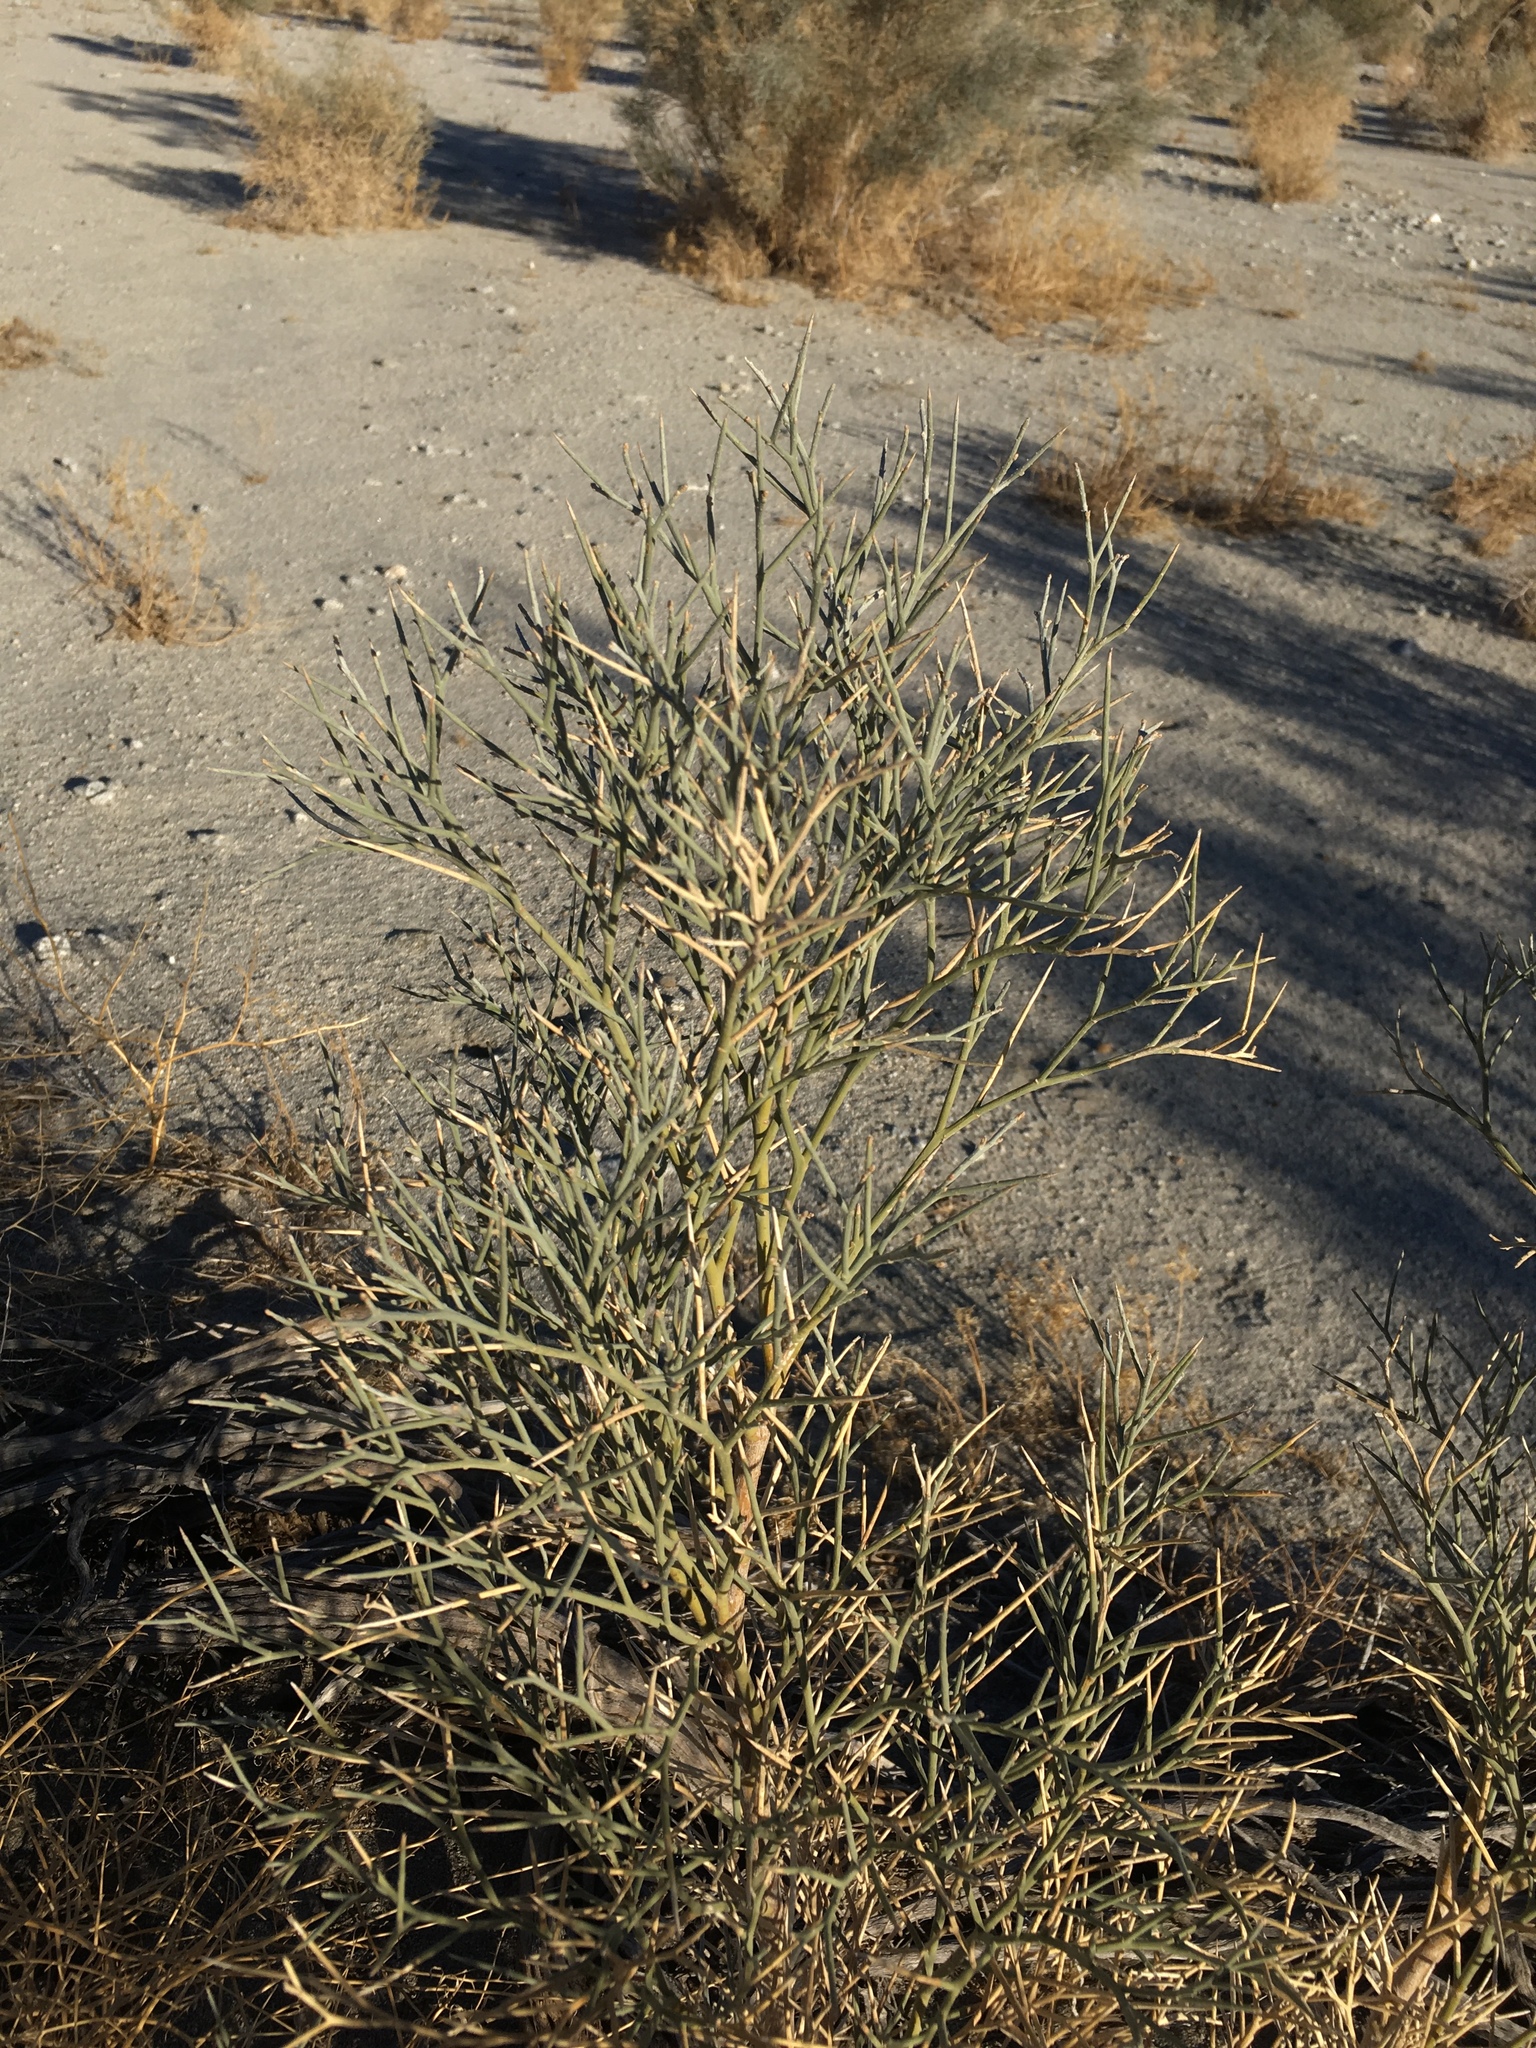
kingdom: Plantae
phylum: Tracheophyta
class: Magnoliopsida
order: Fabales
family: Fabaceae
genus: Psorothamnus
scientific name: Psorothamnus spinosus
